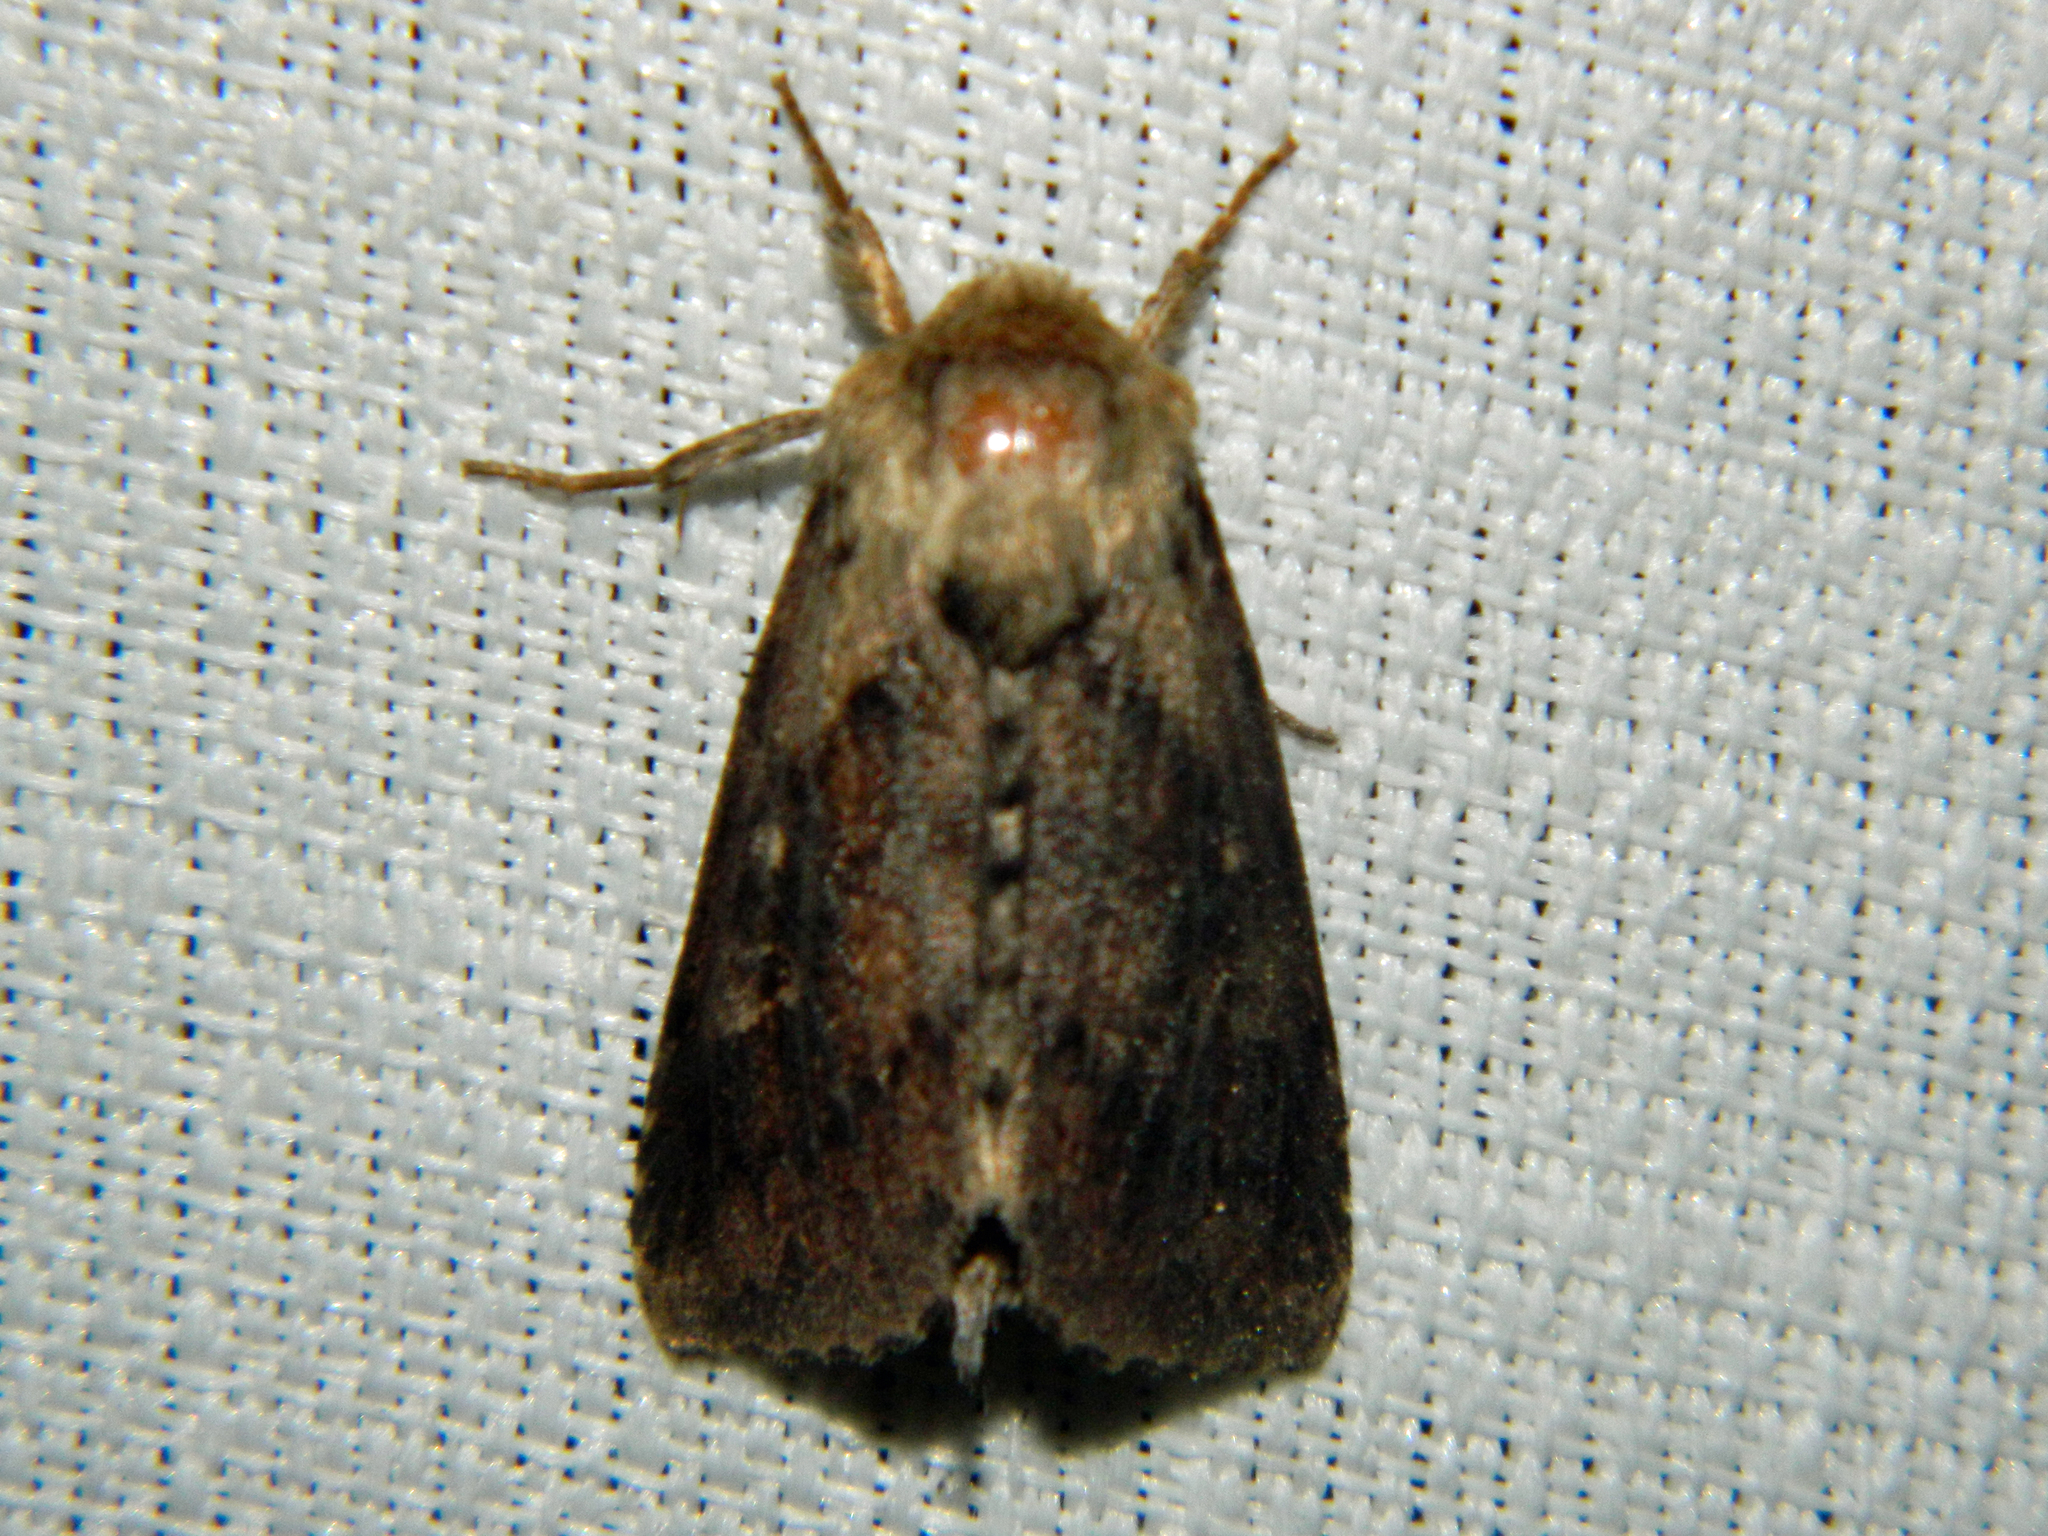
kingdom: Animalia
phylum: Arthropoda
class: Insecta
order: Lepidoptera
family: Noctuidae
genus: Bellura
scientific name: Bellura vulnifica
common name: Black-tailed diver moth
